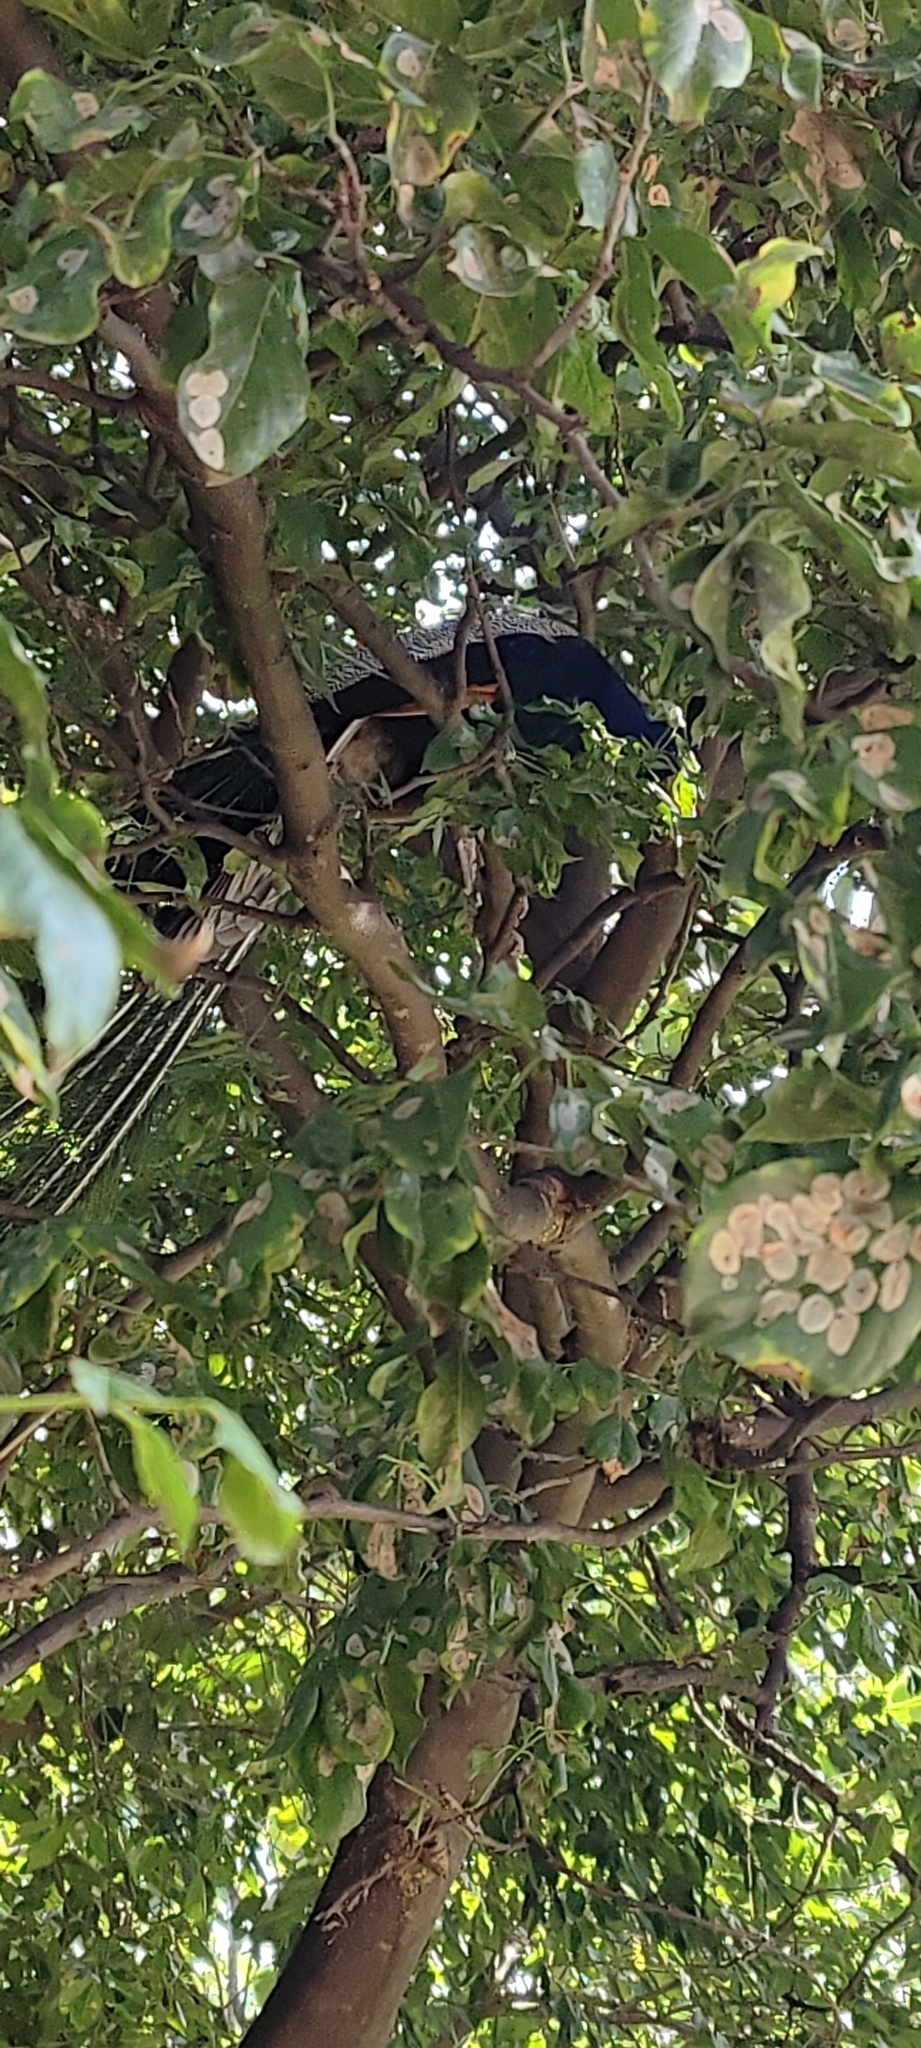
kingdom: Animalia
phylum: Chordata
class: Aves
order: Galliformes
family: Phasianidae
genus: Pavo
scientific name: Pavo cristatus
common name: Indian peafowl
